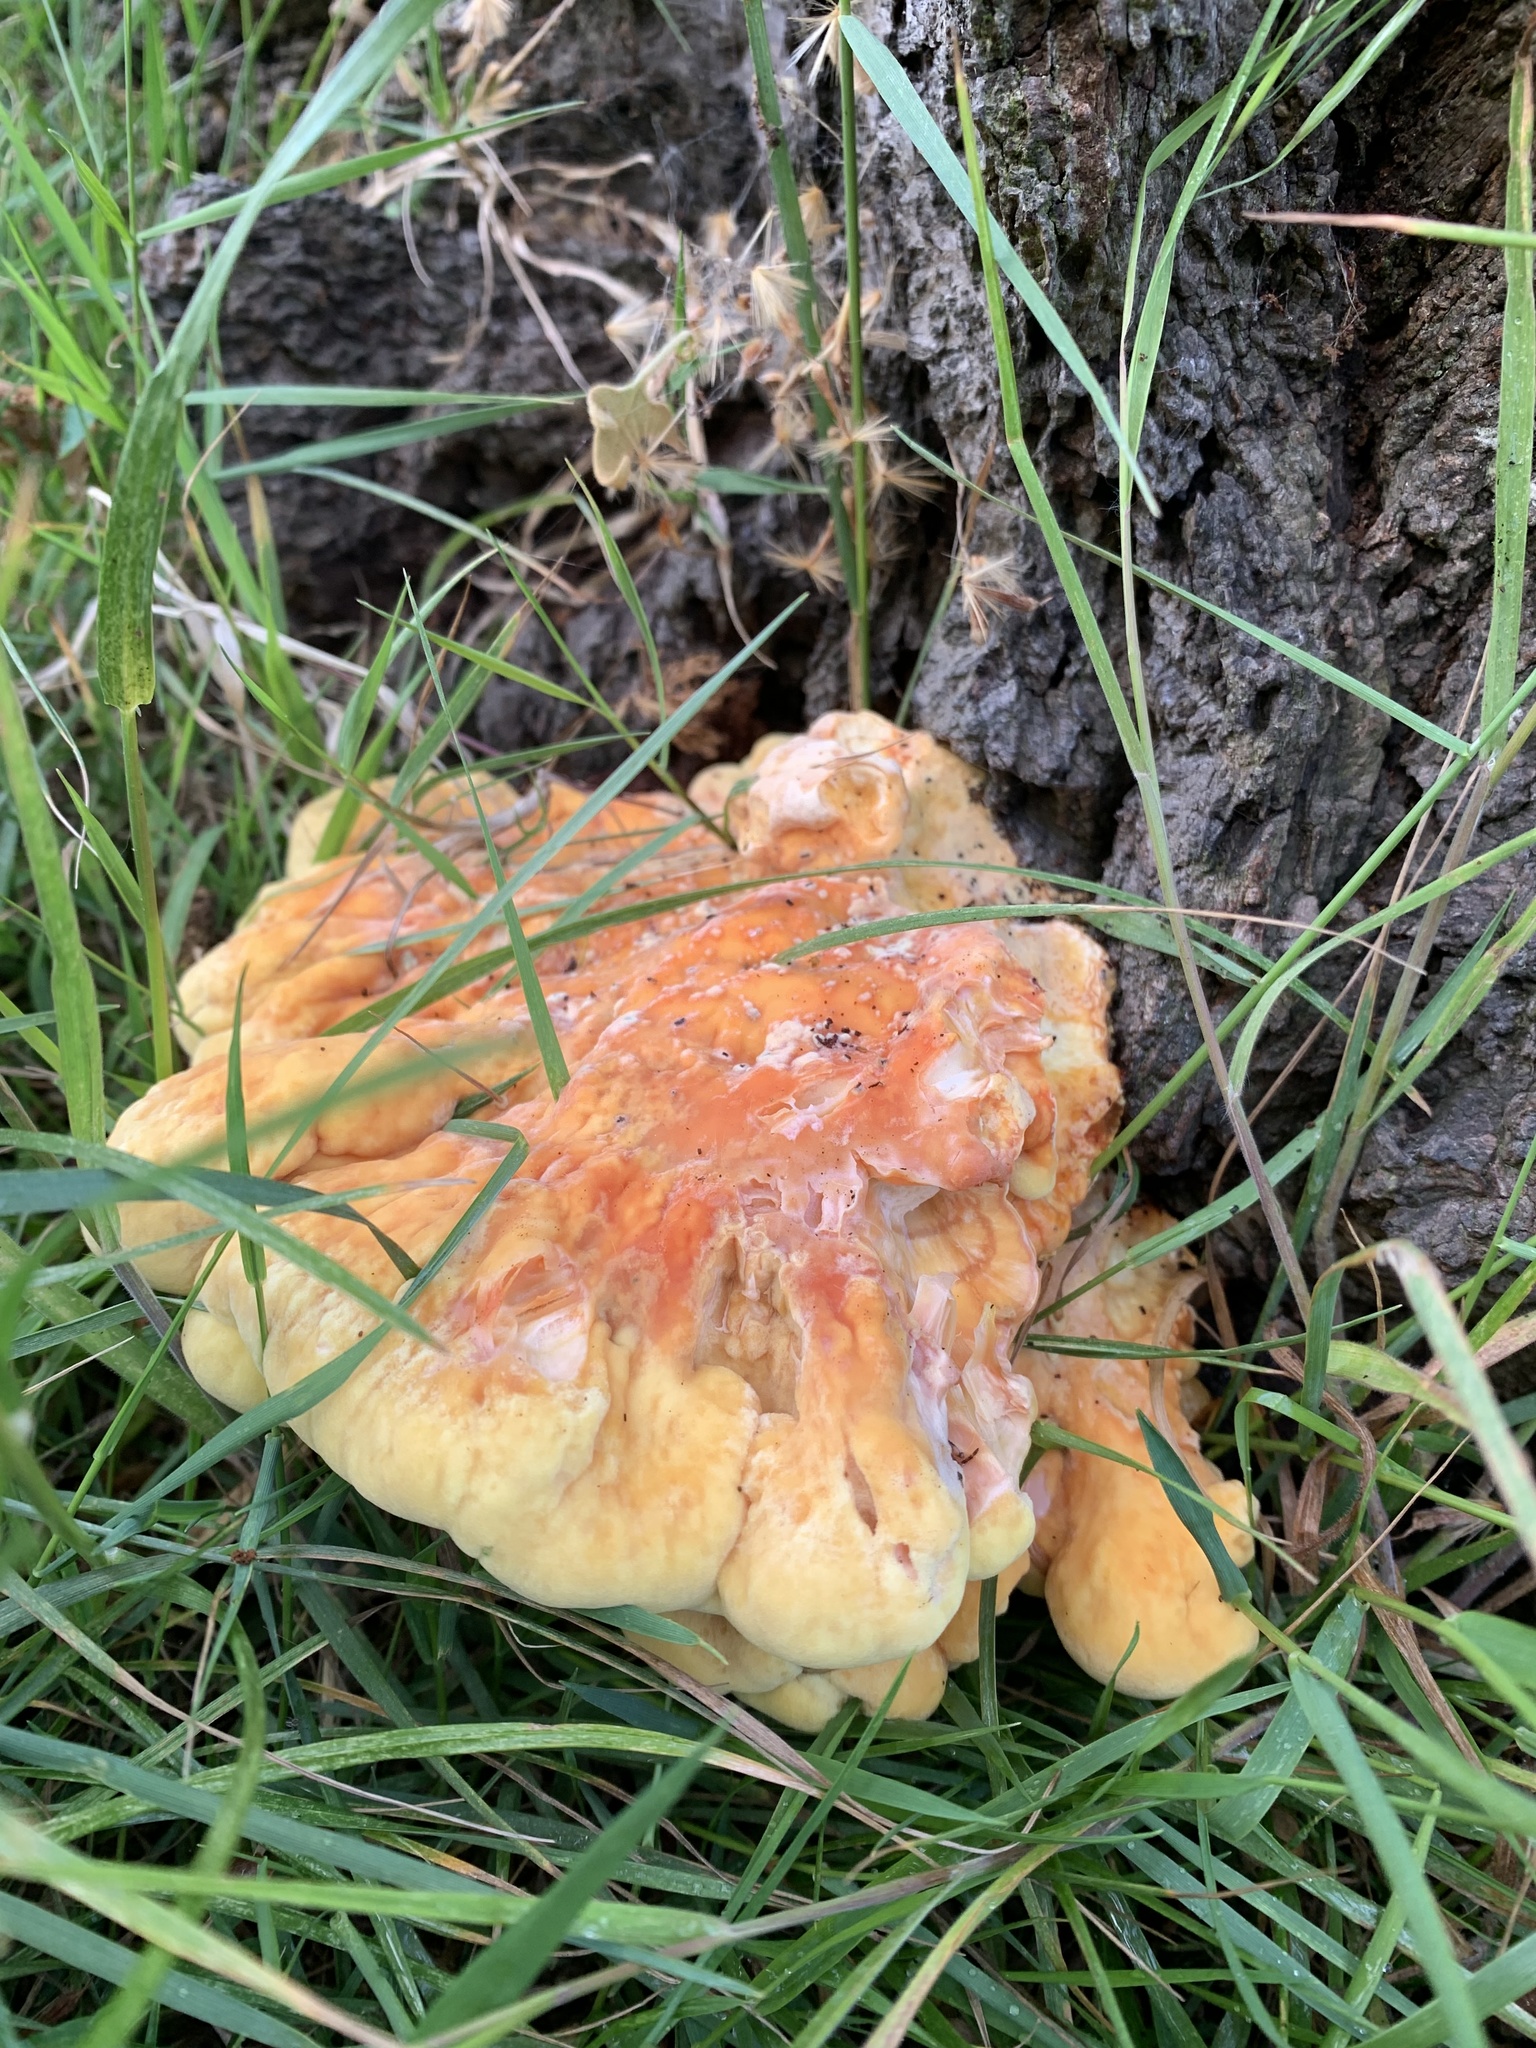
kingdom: Fungi
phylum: Basidiomycota
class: Agaricomycetes
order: Polyporales
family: Laetiporaceae
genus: Laetiporus
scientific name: Laetiporus sulphureus
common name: Chicken of the woods
